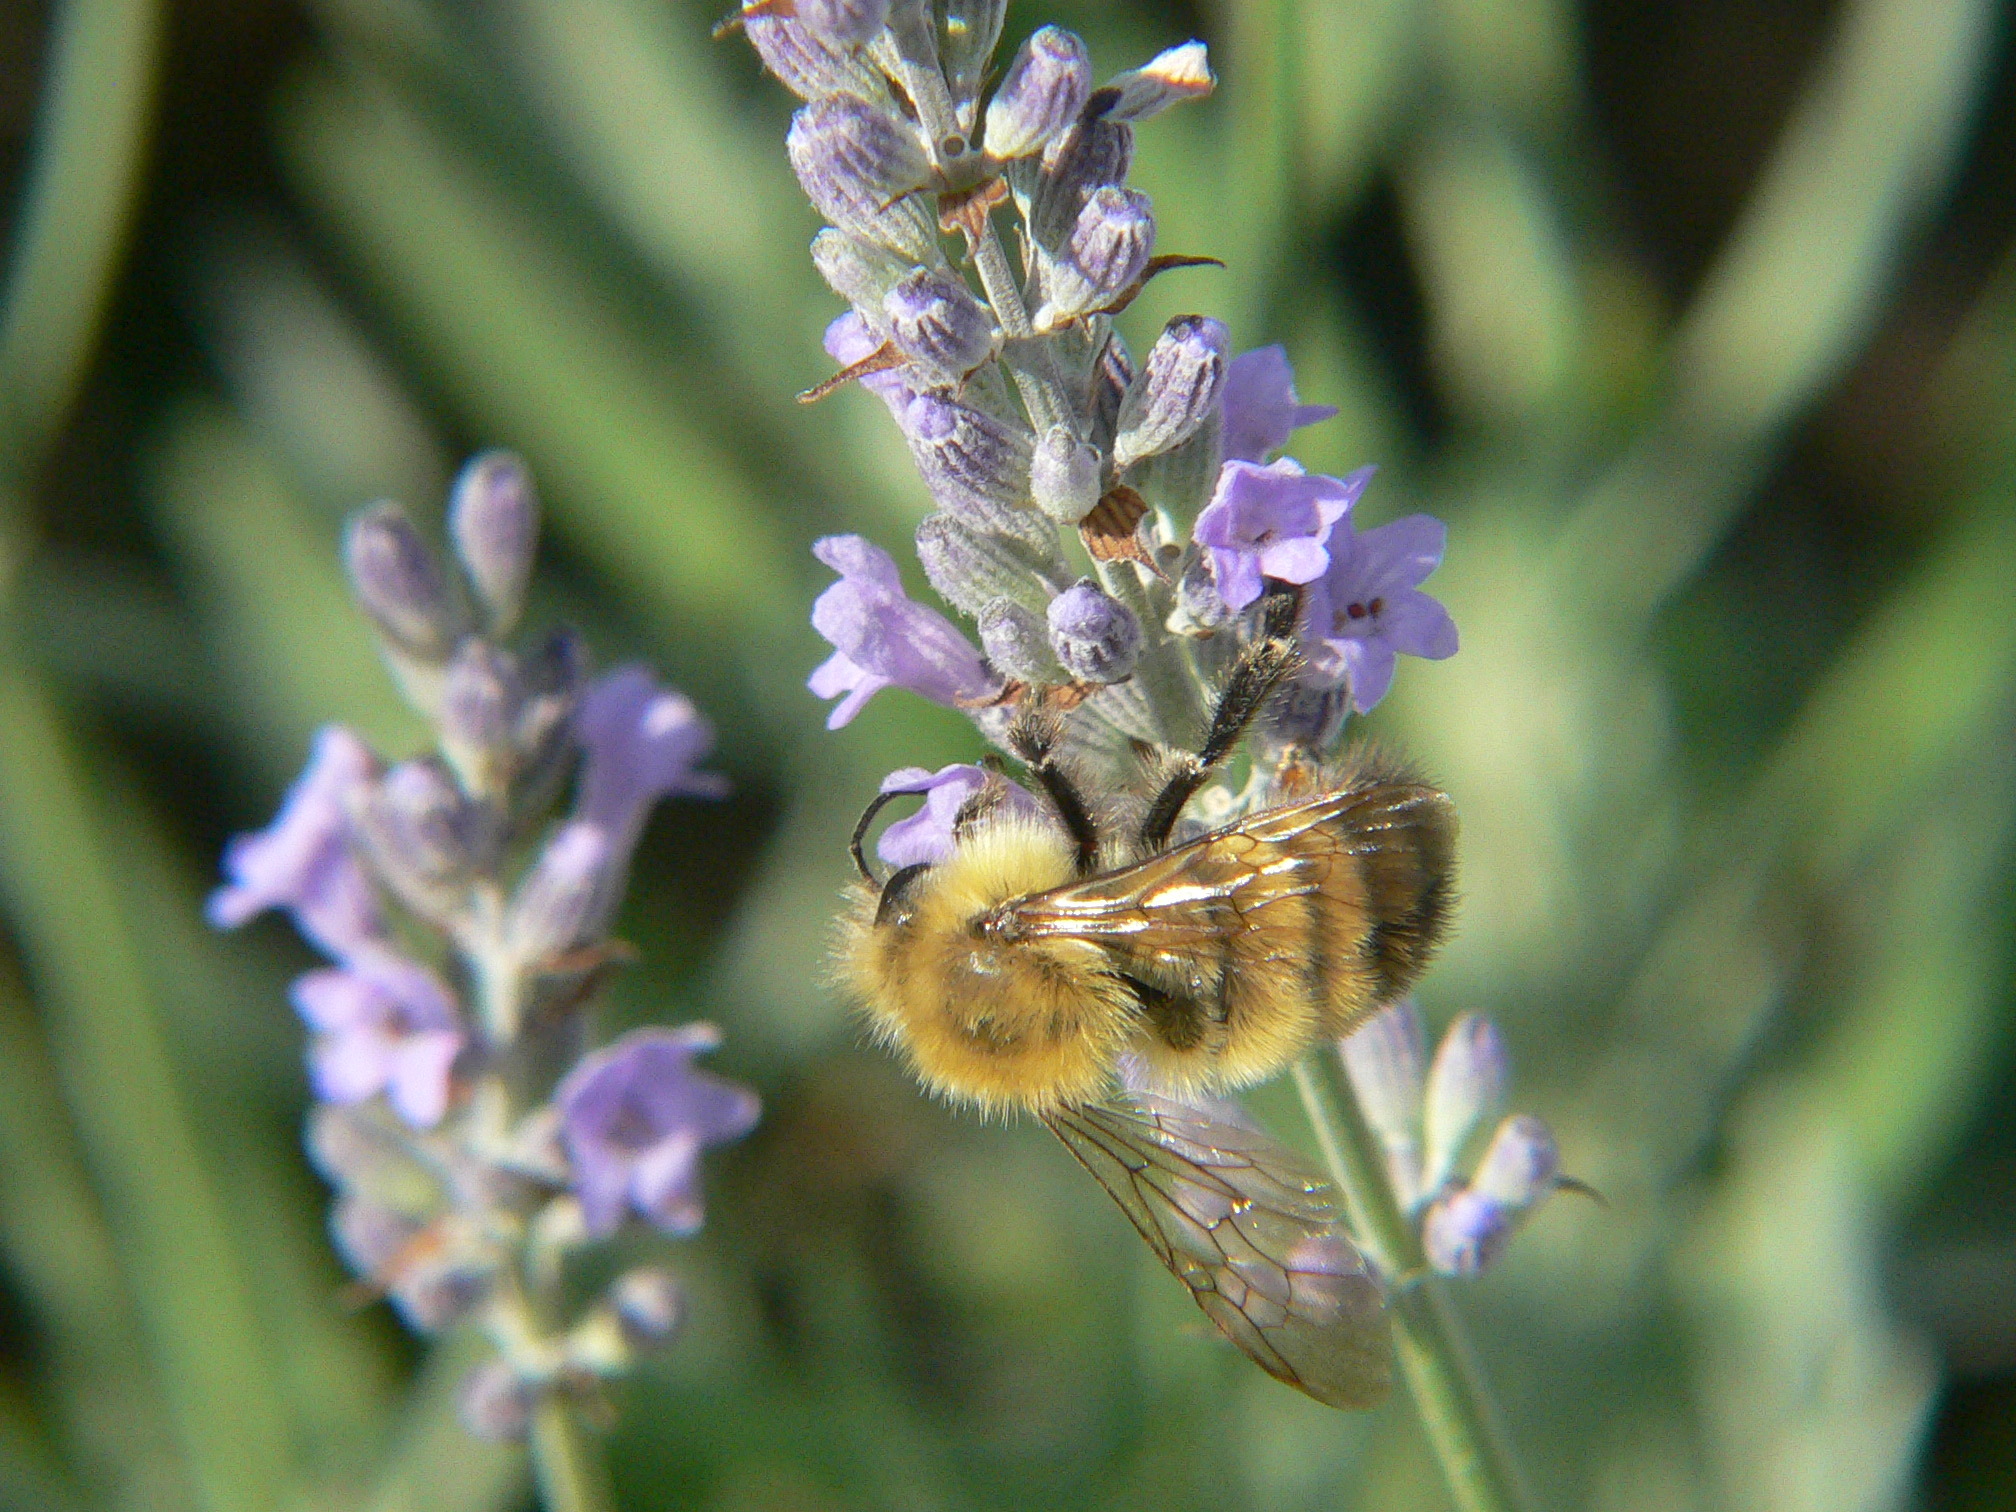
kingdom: Animalia
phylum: Arthropoda
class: Insecta
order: Hymenoptera
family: Apidae
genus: Bombus
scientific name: Bombus perplexus
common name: Confusing bumble bee
